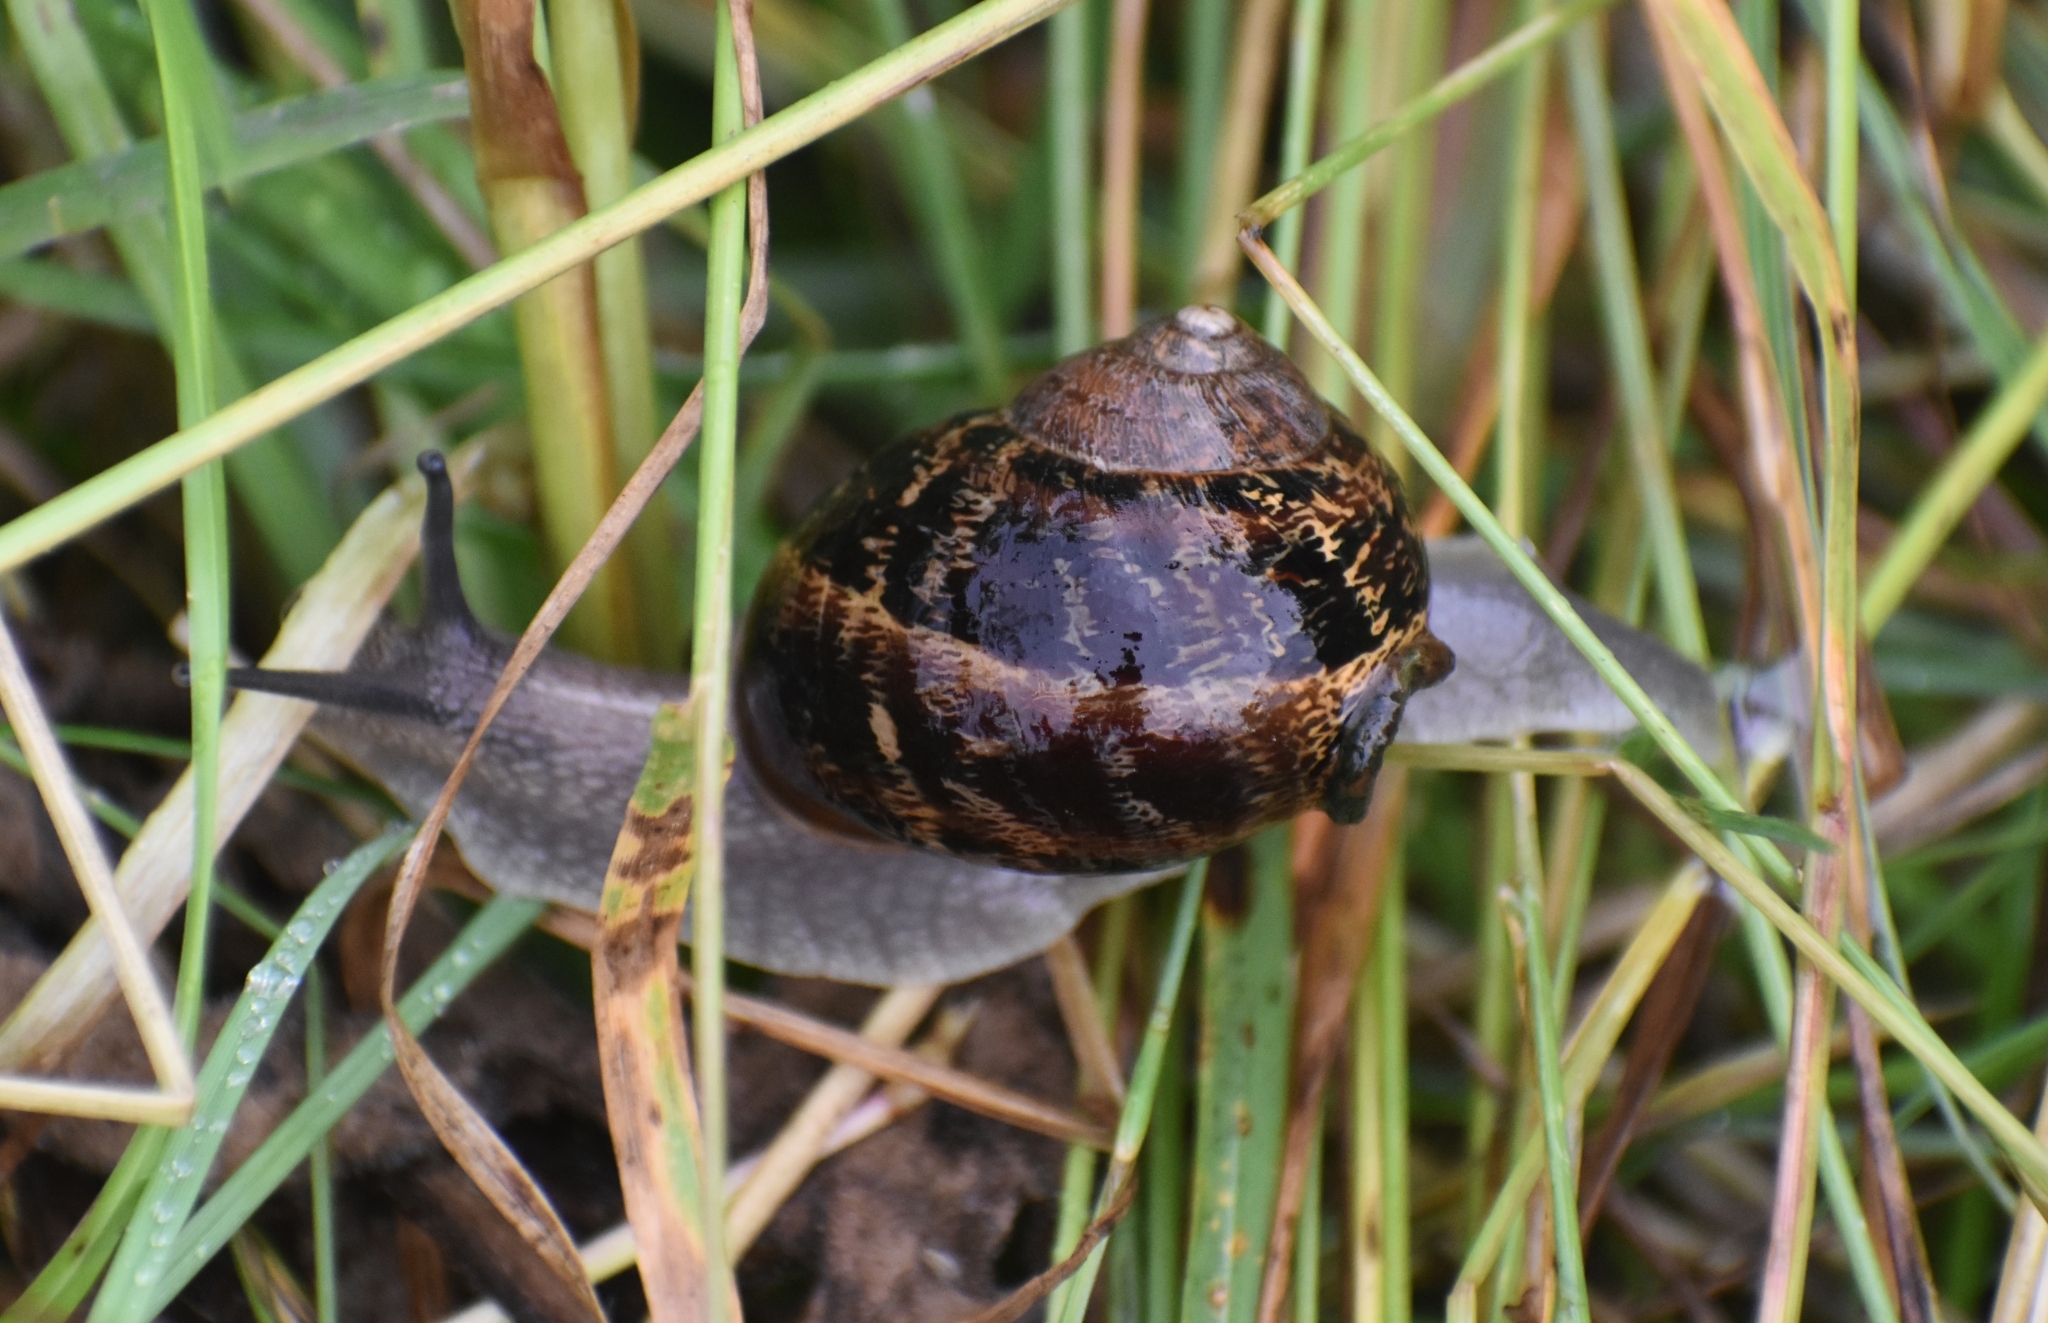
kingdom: Animalia
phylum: Mollusca
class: Gastropoda
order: Stylommatophora
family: Helicidae
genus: Cornu
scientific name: Cornu aspersum
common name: Brown garden snail
